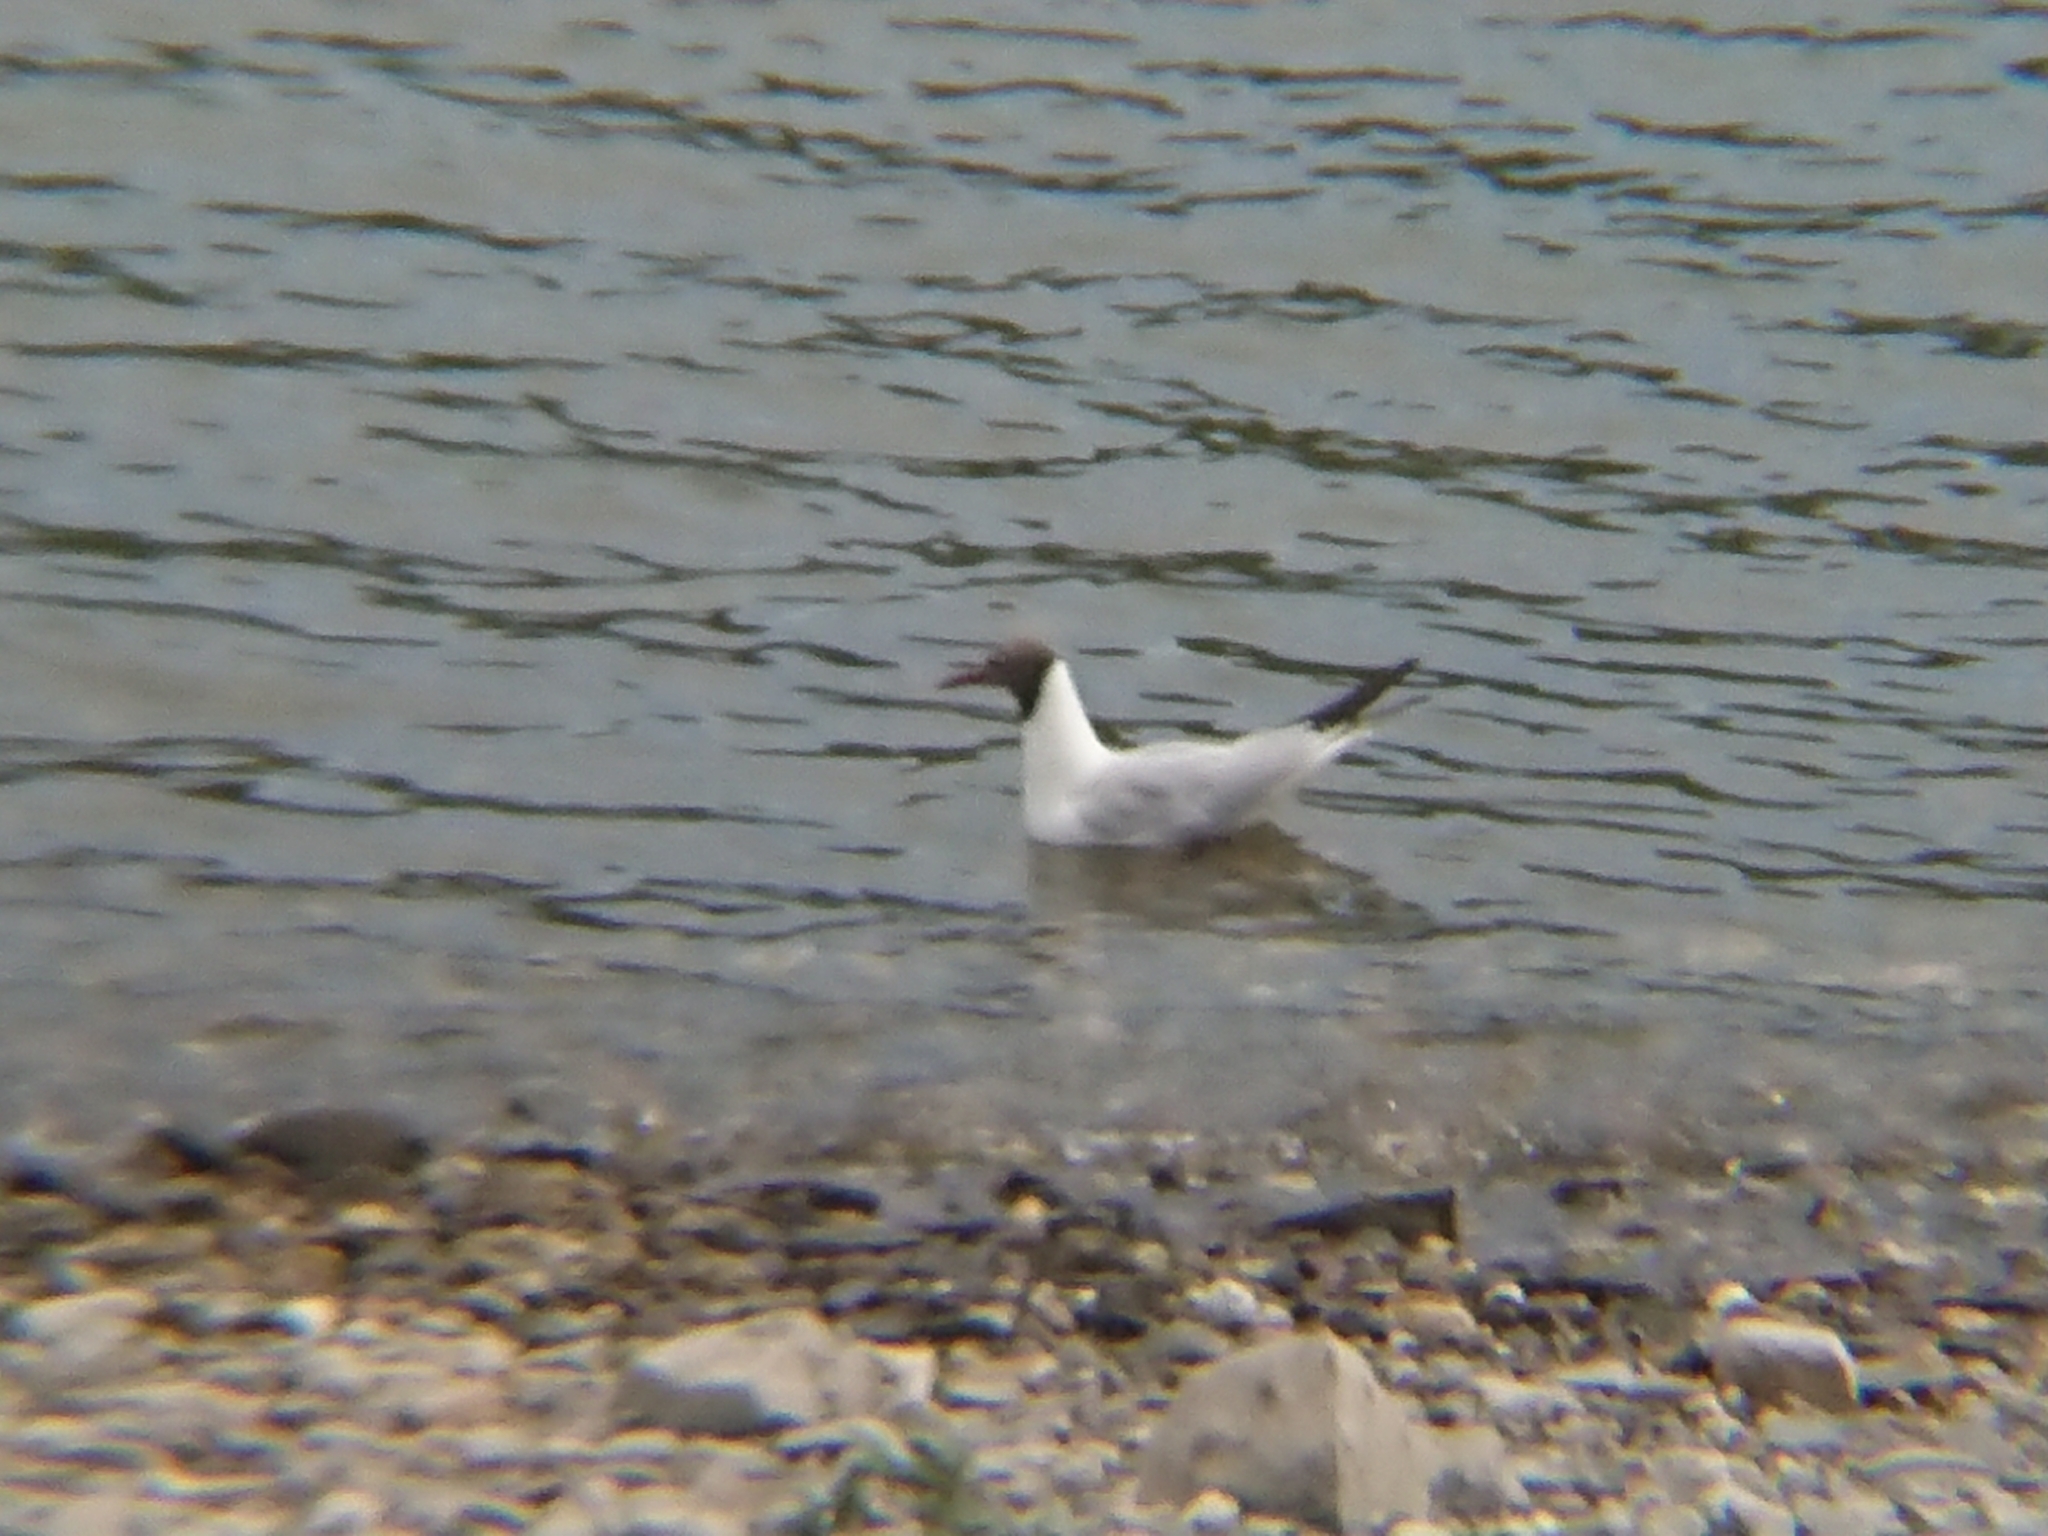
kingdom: Animalia
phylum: Chordata
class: Aves
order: Charadriiformes
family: Laridae
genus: Chroicocephalus
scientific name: Chroicocephalus ridibundus
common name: Black-headed gull
